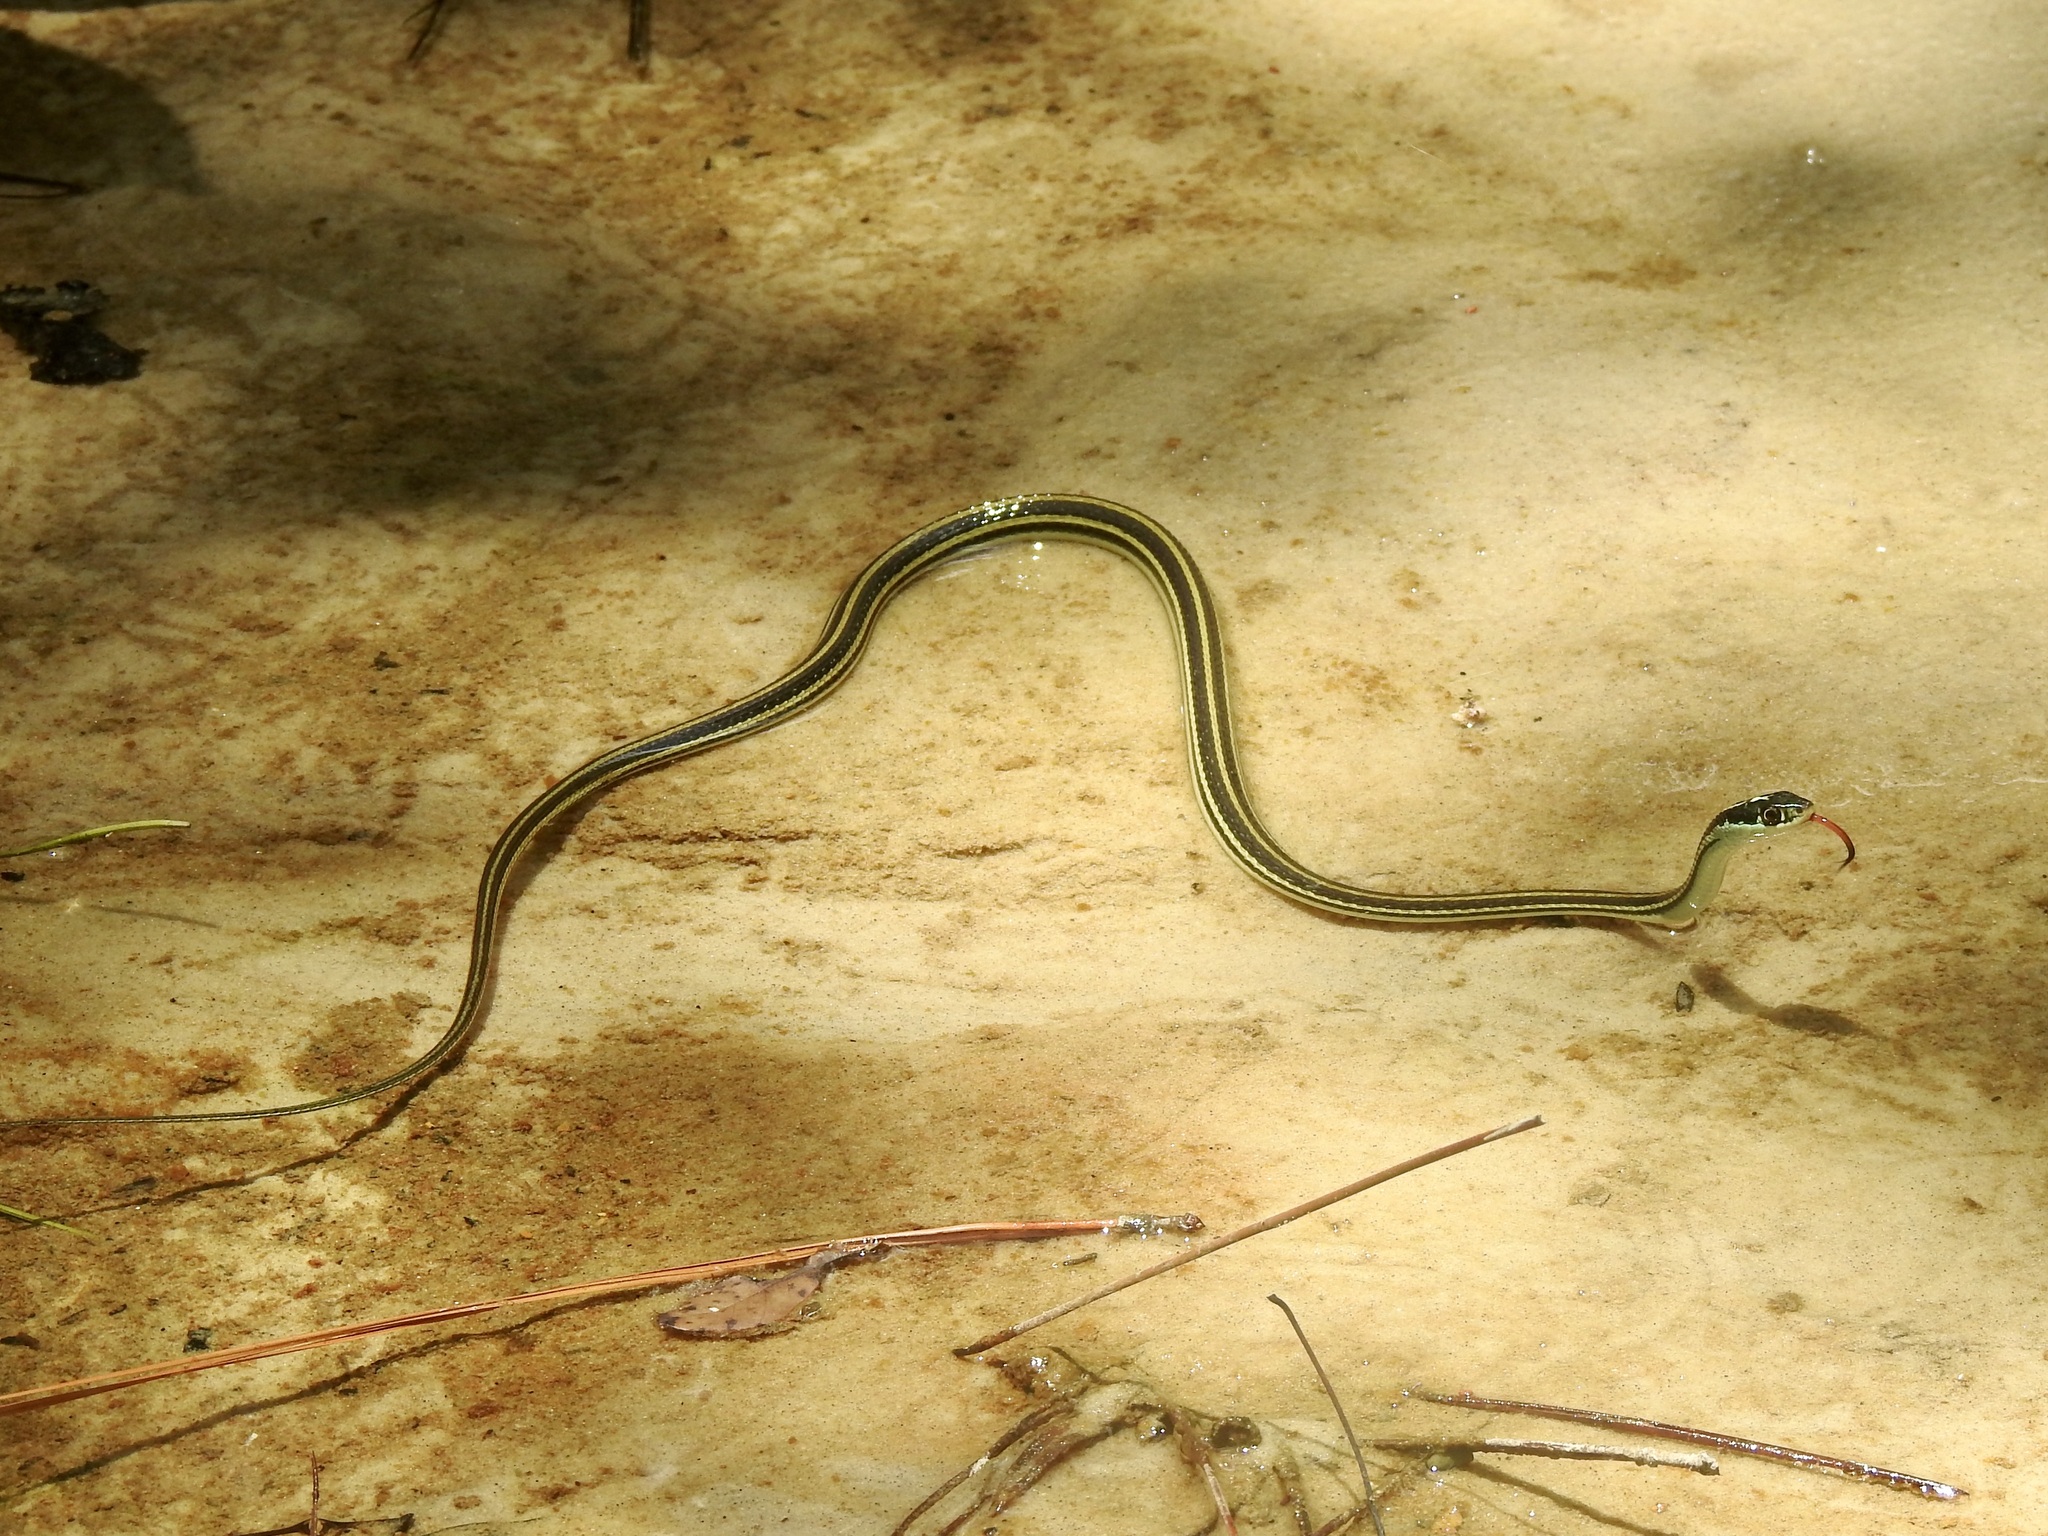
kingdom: Animalia
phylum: Chordata
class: Squamata
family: Colubridae
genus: Thamnophis
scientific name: Thamnophis proximus
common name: Western ribbon snake
